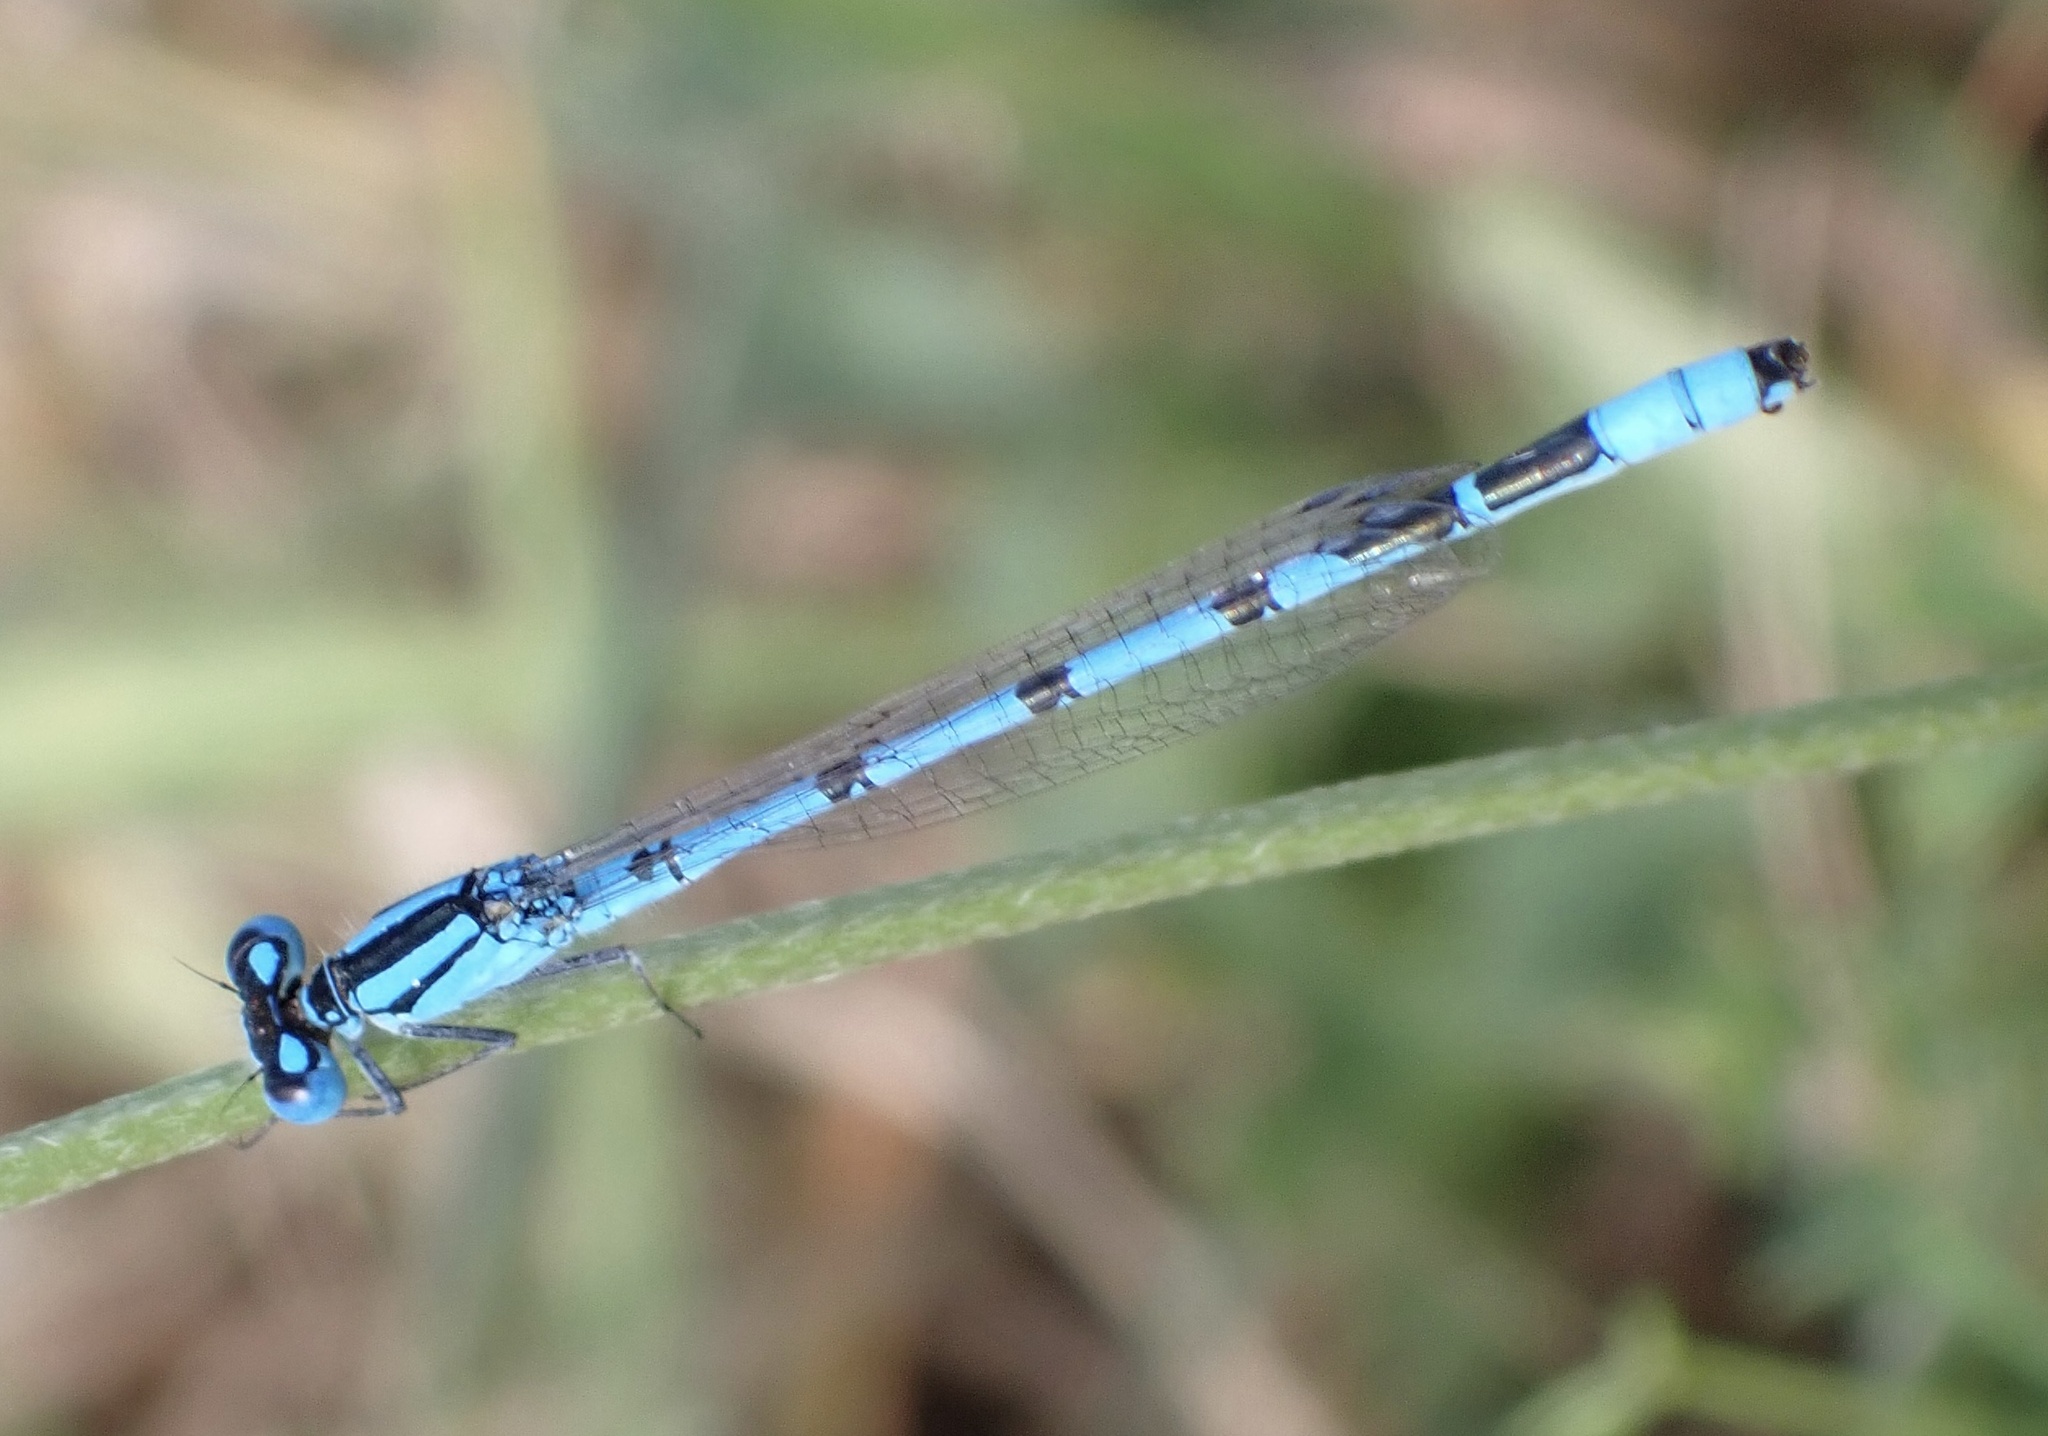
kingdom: Animalia
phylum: Arthropoda
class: Insecta
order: Odonata
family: Coenagrionidae
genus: Enallagma
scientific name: Enallagma cyathigerum
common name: Common blue damselfly
